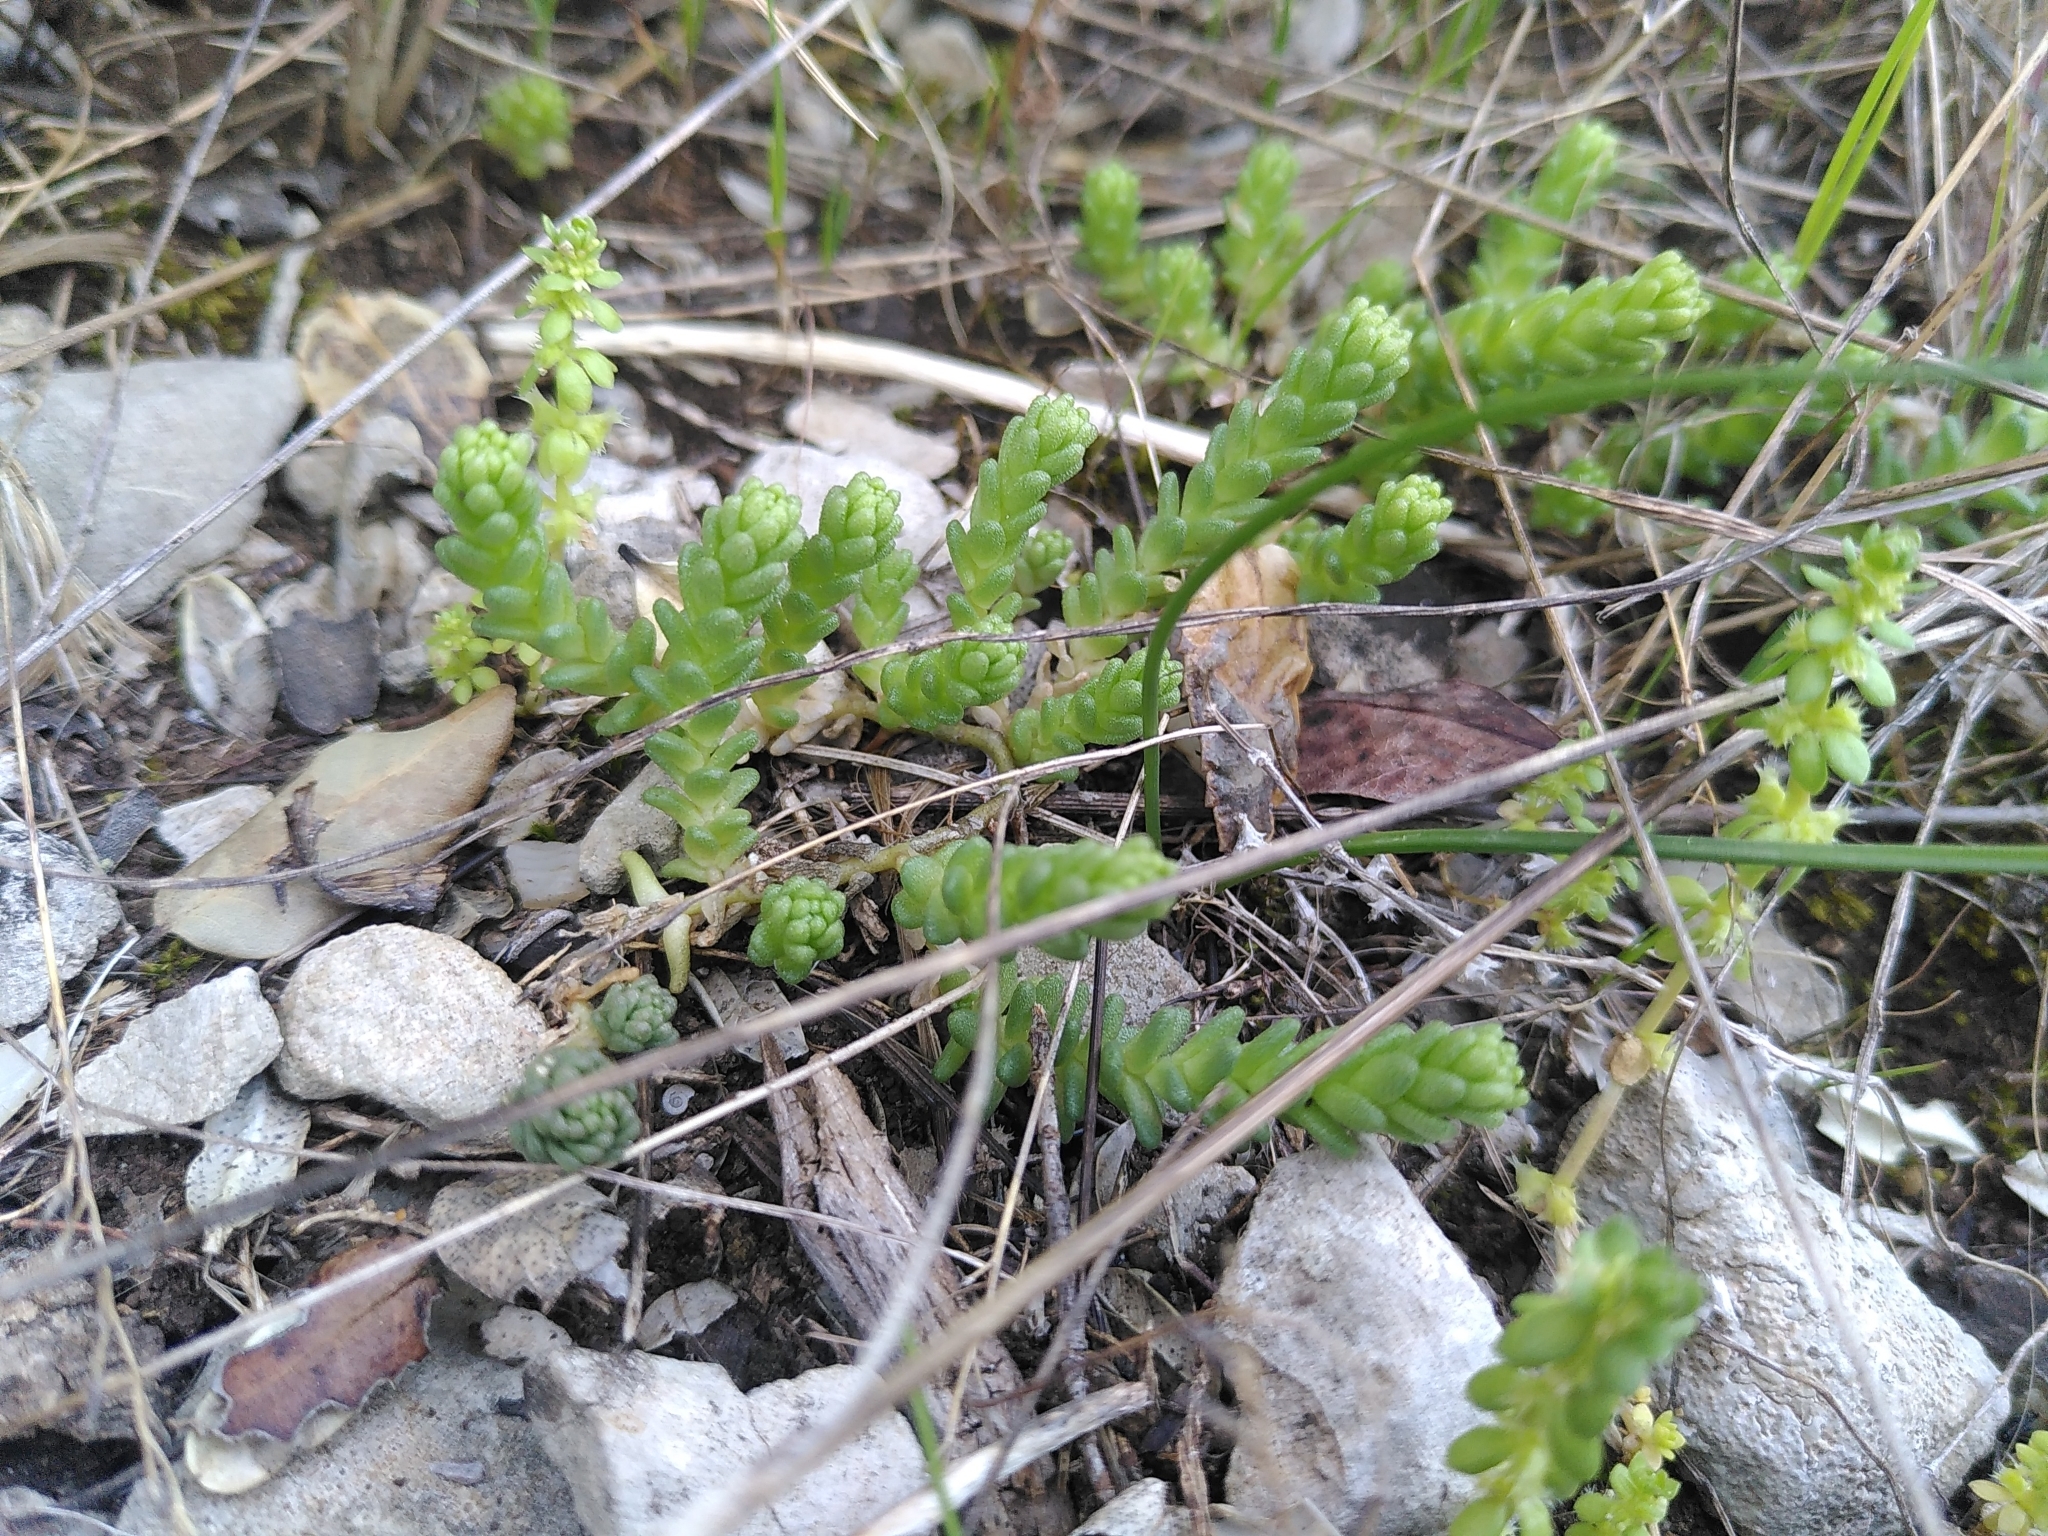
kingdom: Plantae
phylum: Tracheophyta
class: Magnoliopsida
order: Gentianales
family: Rubiaceae
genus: Valantia
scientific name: Valantia muralis
